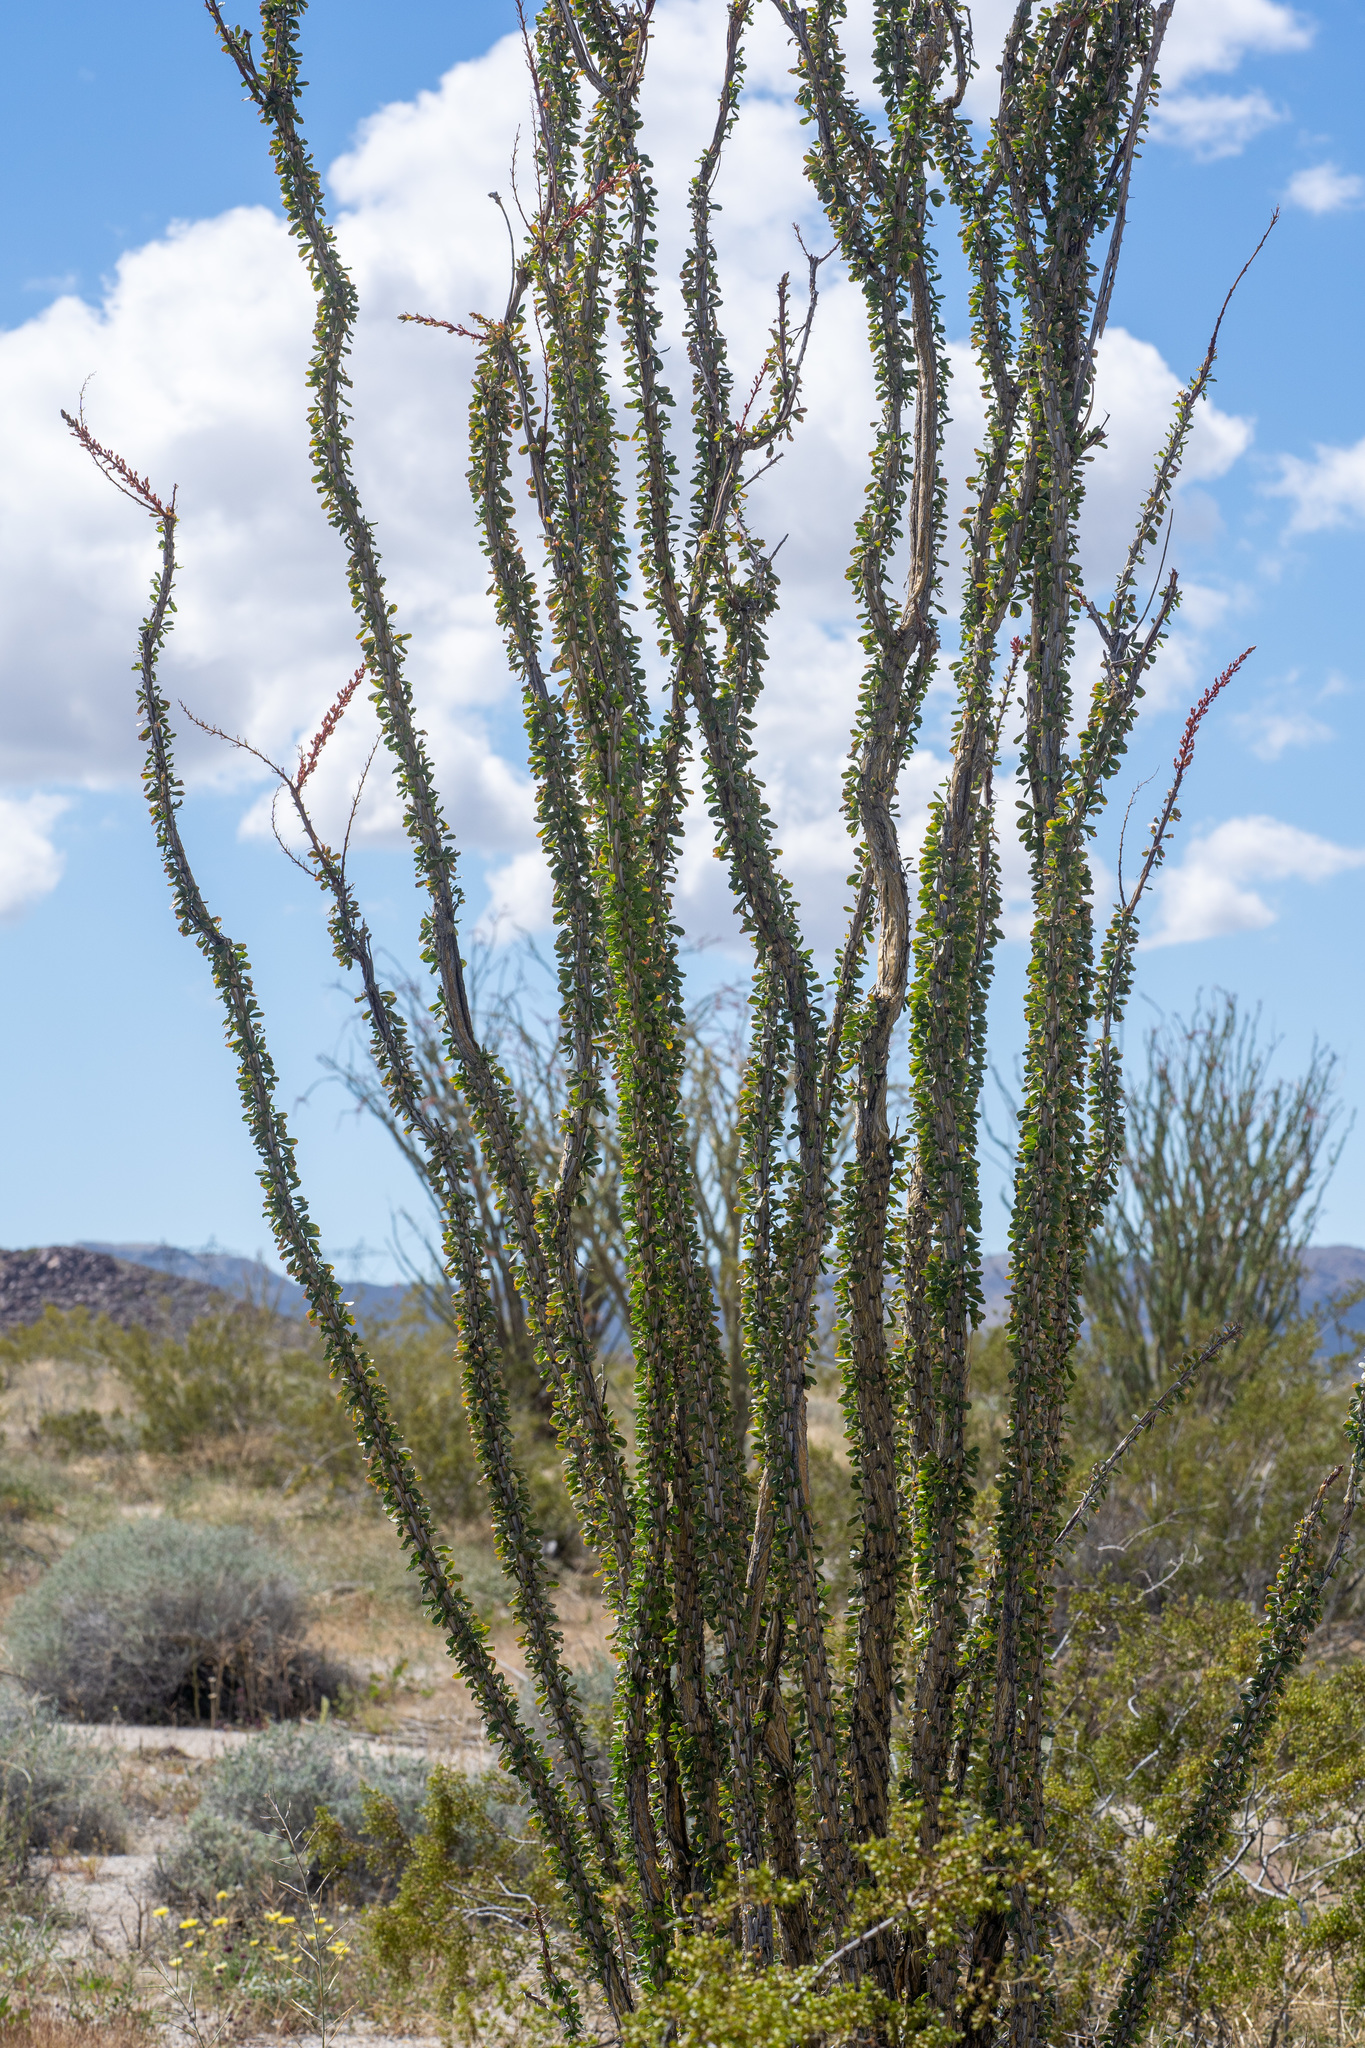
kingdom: Plantae
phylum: Tracheophyta
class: Magnoliopsida
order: Ericales
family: Fouquieriaceae
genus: Fouquieria
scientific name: Fouquieria splendens
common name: Vine-cactus
